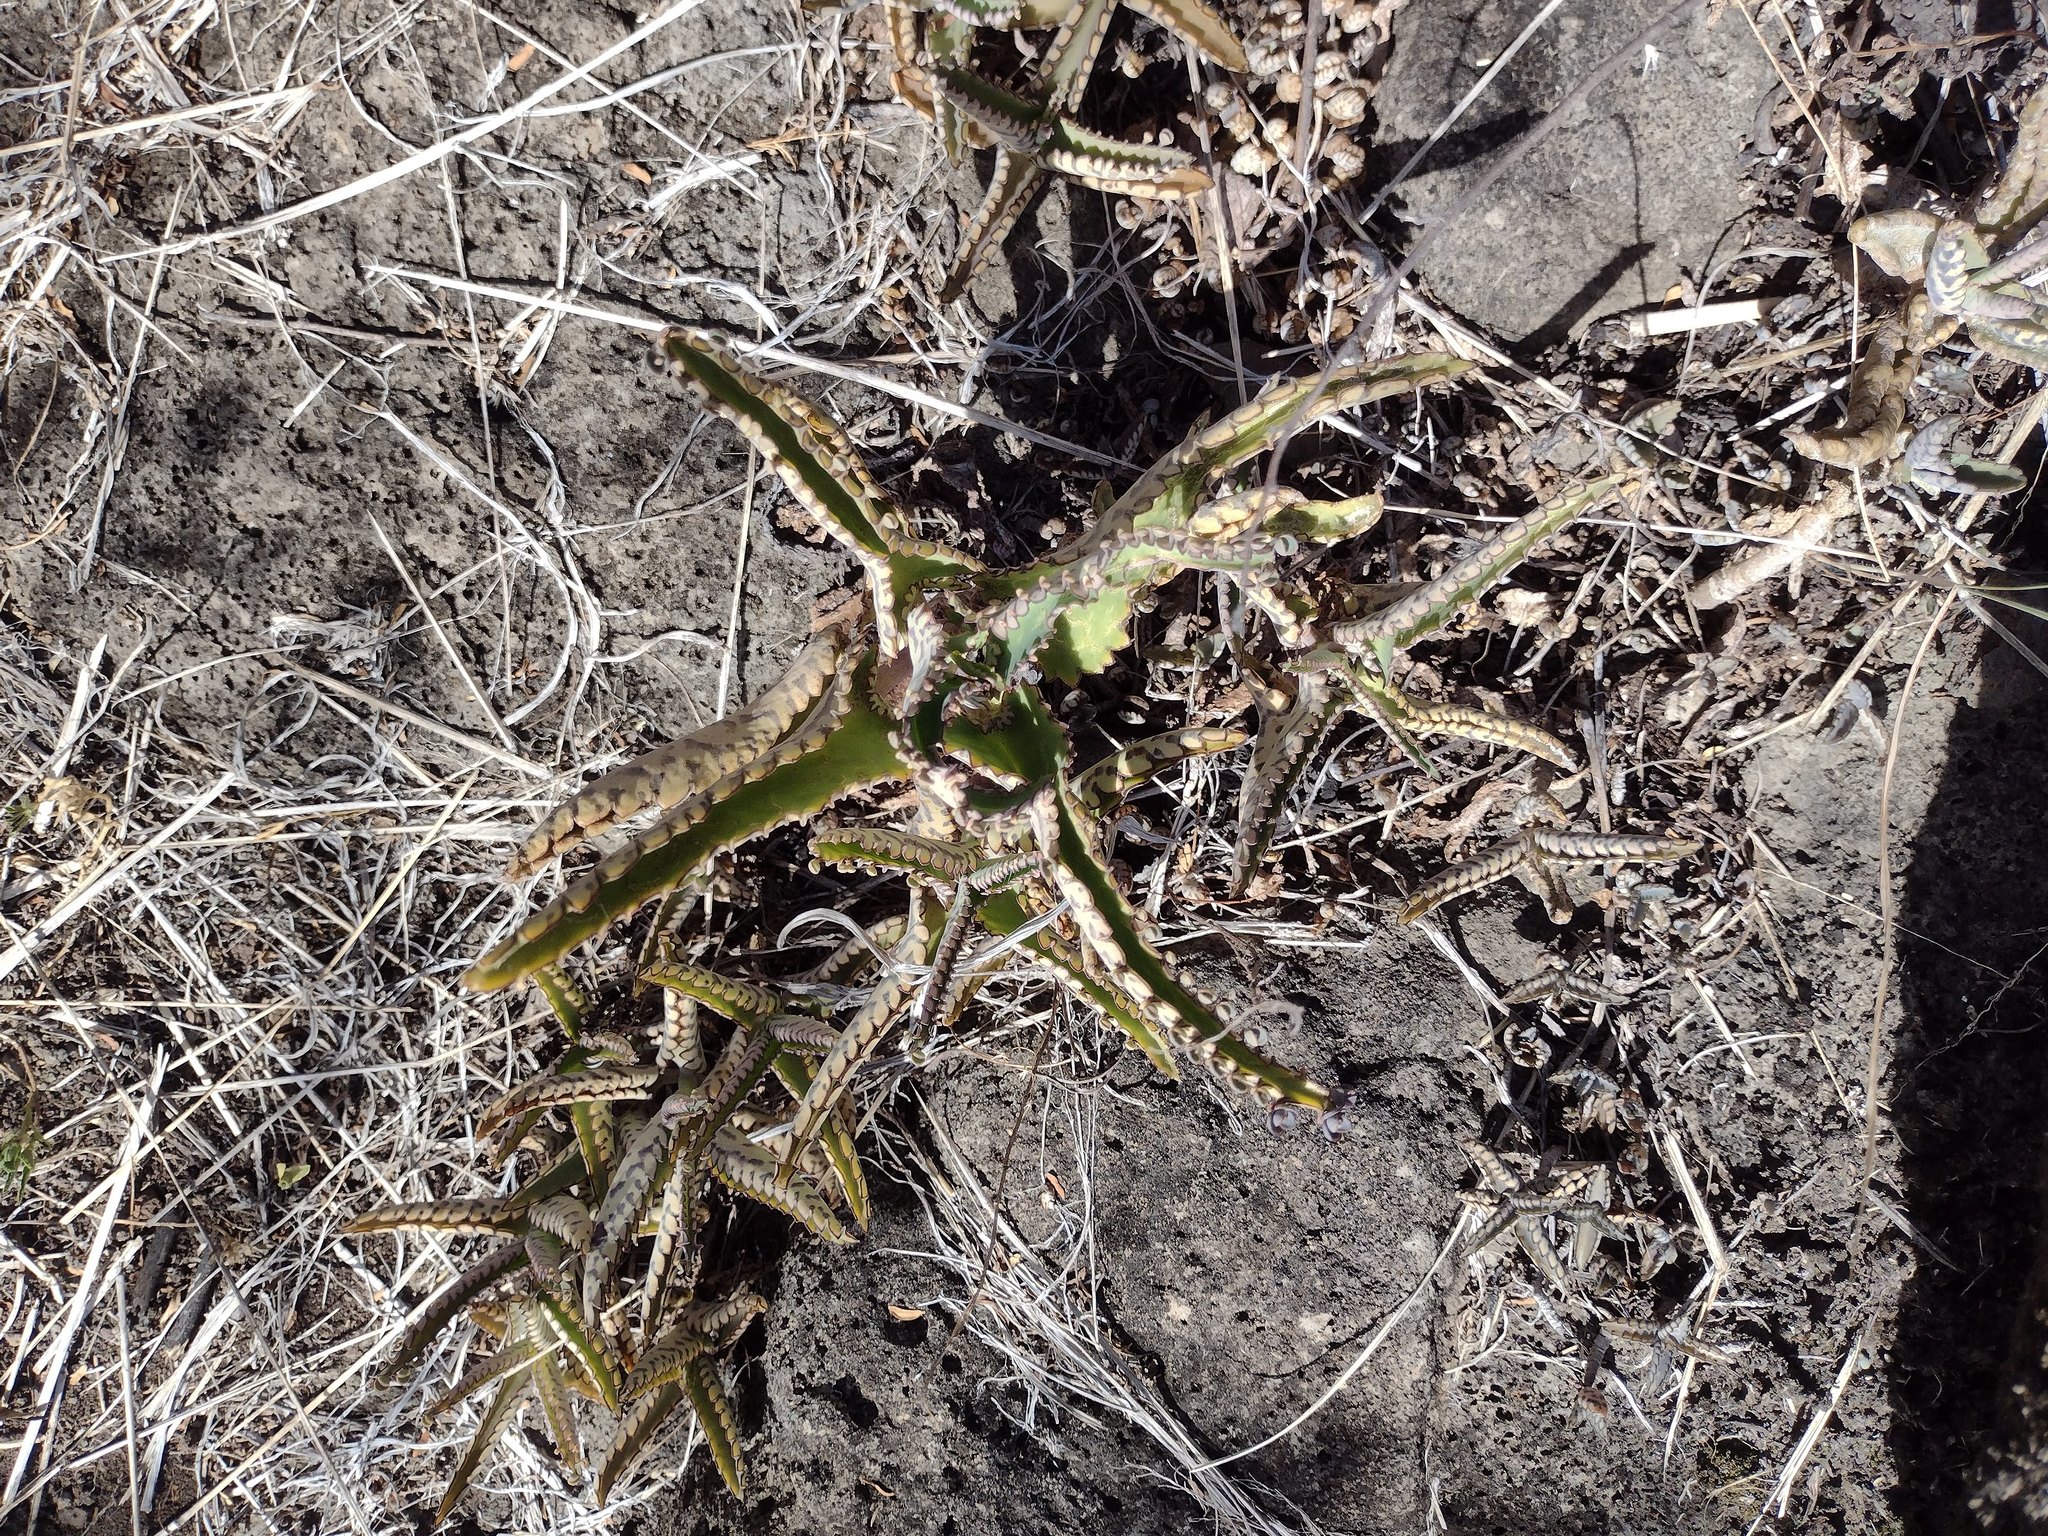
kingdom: Plantae
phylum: Tracheophyta
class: Magnoliopsida
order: Saxifragales
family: Crassulaceae
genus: Kalanchoe
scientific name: Kalanchoe daigremontiana
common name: Devil's backbone
